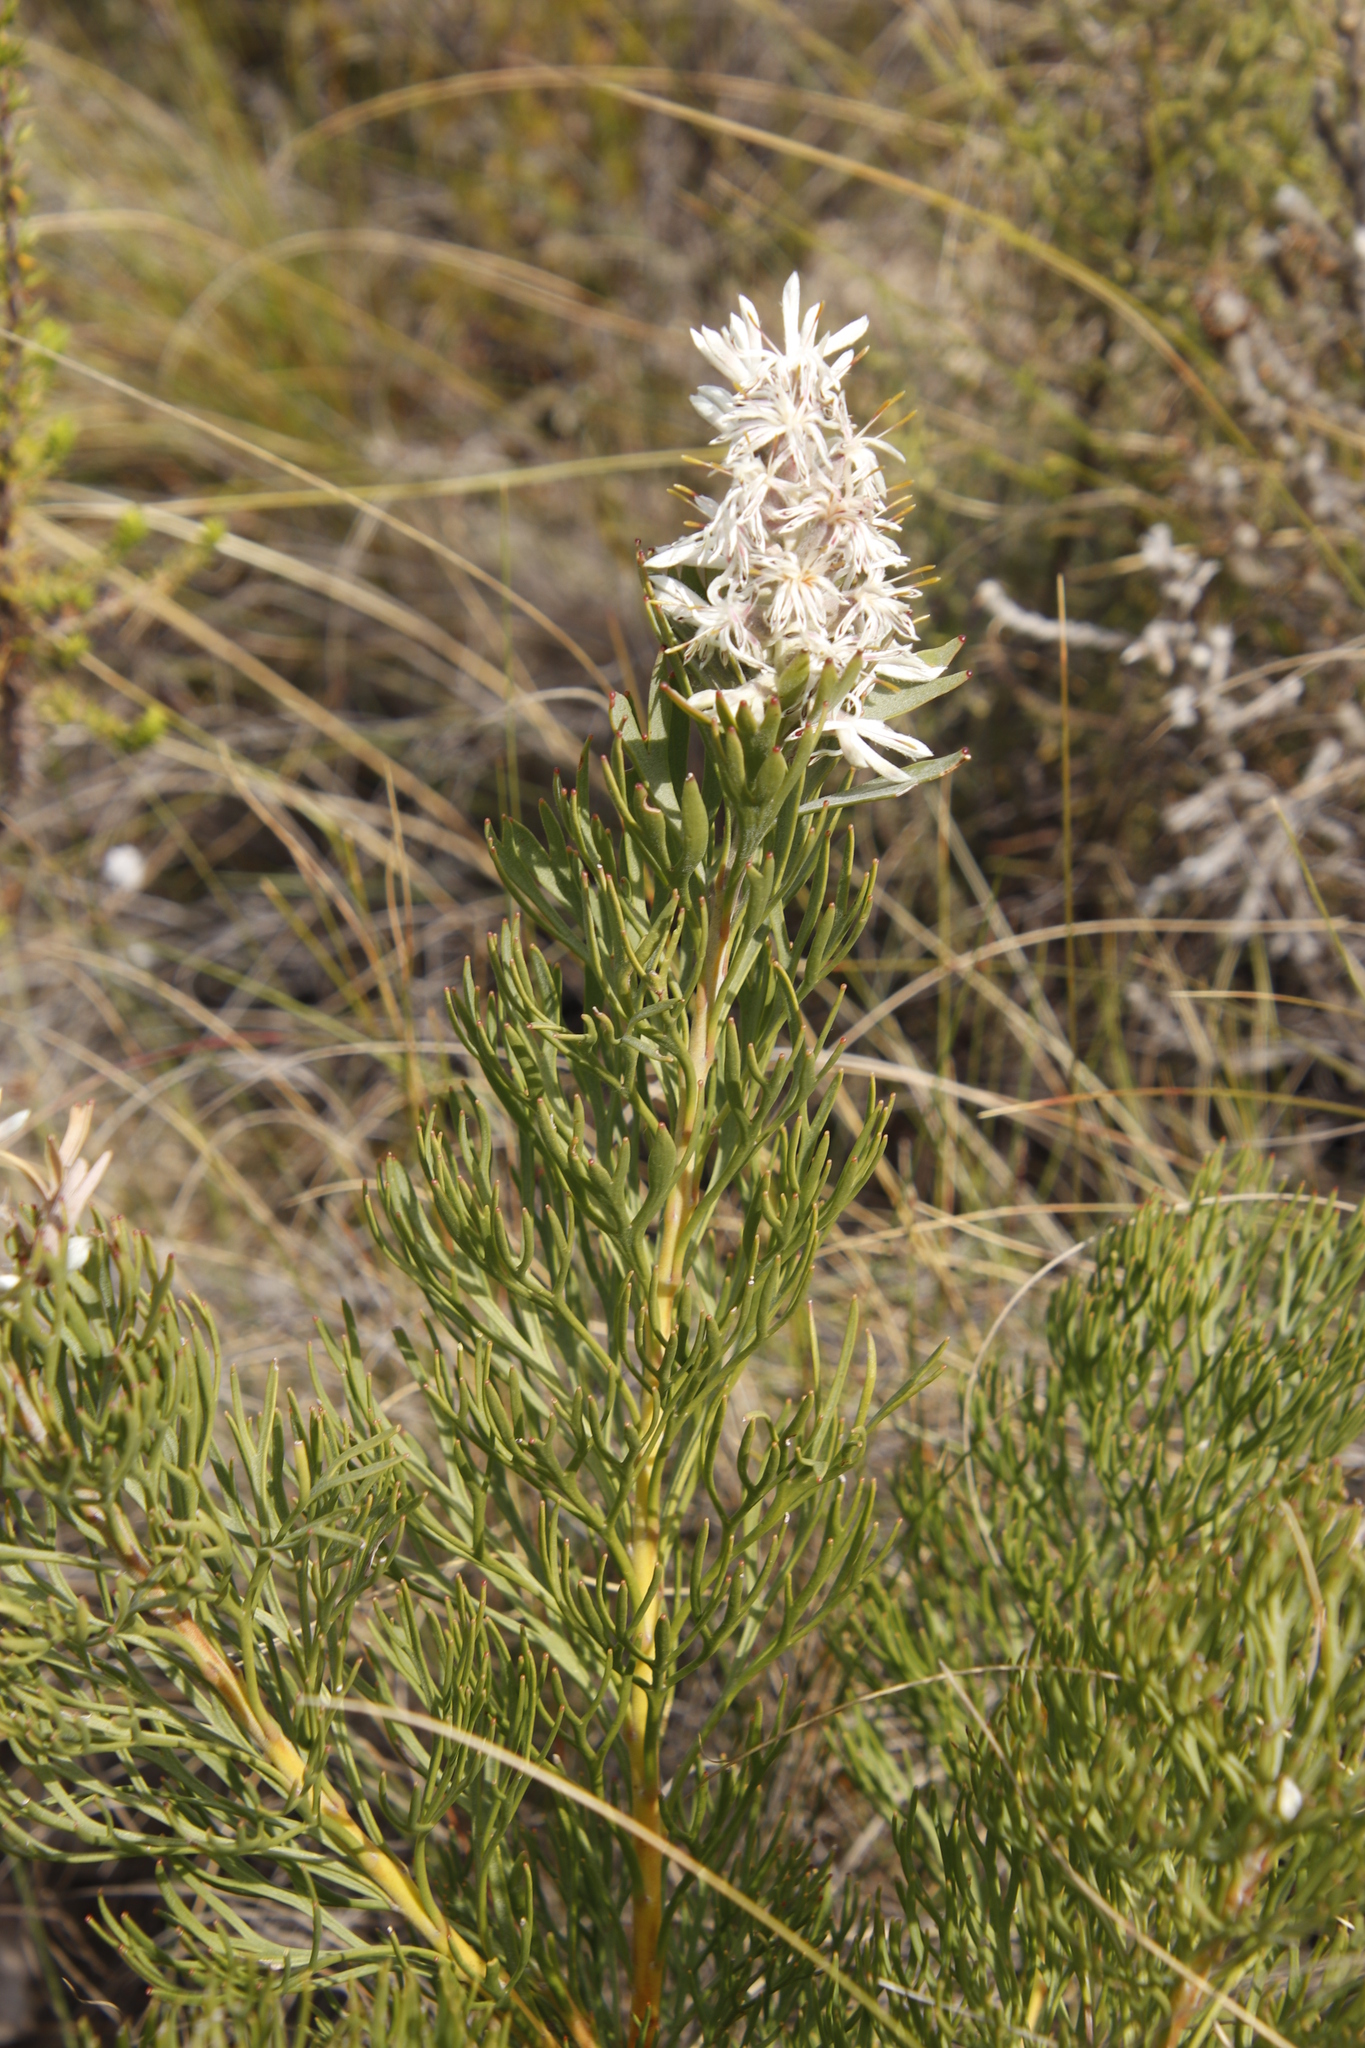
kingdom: Plantae
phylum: Tracheophyta
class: Magnoliopsida
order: Proteales
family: Proteaceae
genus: Paranomus
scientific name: Paranomus dregei
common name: Scented sceptre
